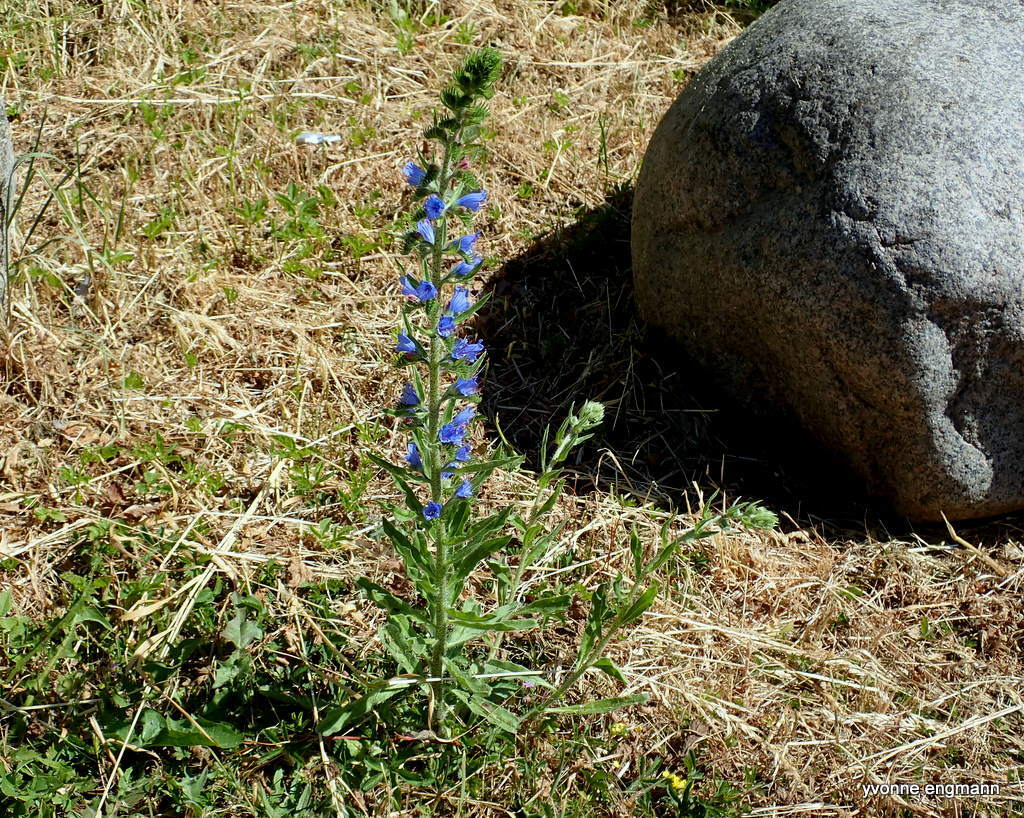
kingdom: Plantae
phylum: Tracheophyta
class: Magnoliopsida
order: Boraginales
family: Boraginaceae
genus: Echium
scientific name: Echium vulgare
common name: Common viper's bugloss
